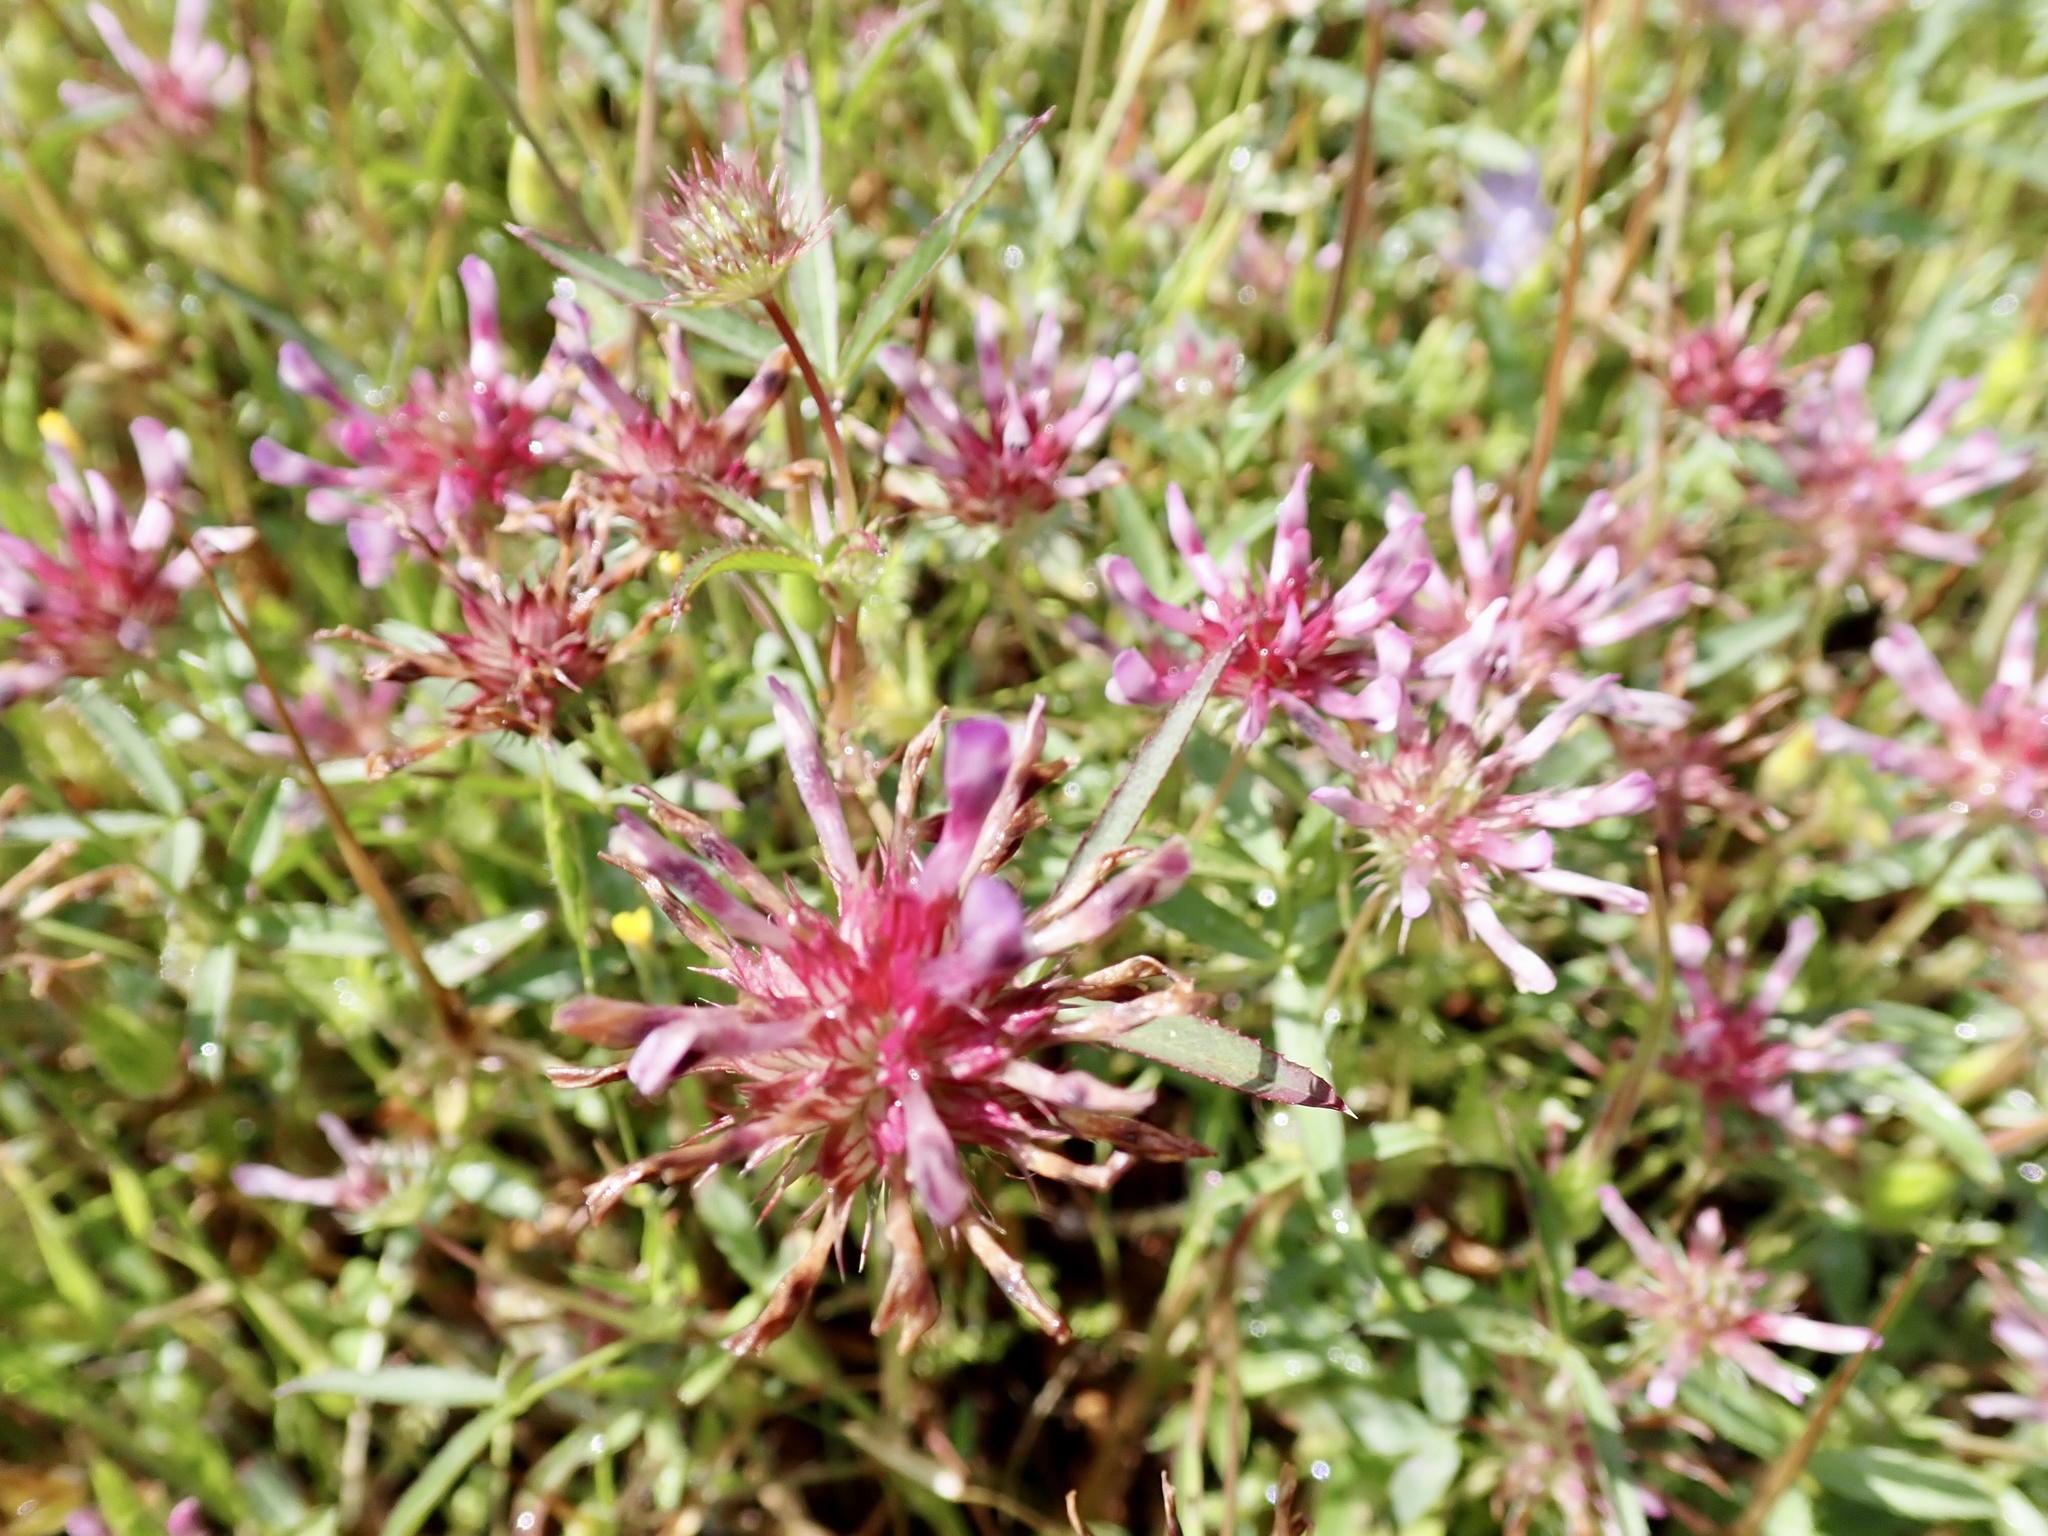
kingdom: Plantae
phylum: Tracheophyta
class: Magnoliopsida
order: Fabales
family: Fabaceae
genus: Trifolium
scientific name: Trifolium willdenovii
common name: Tomcat clover
